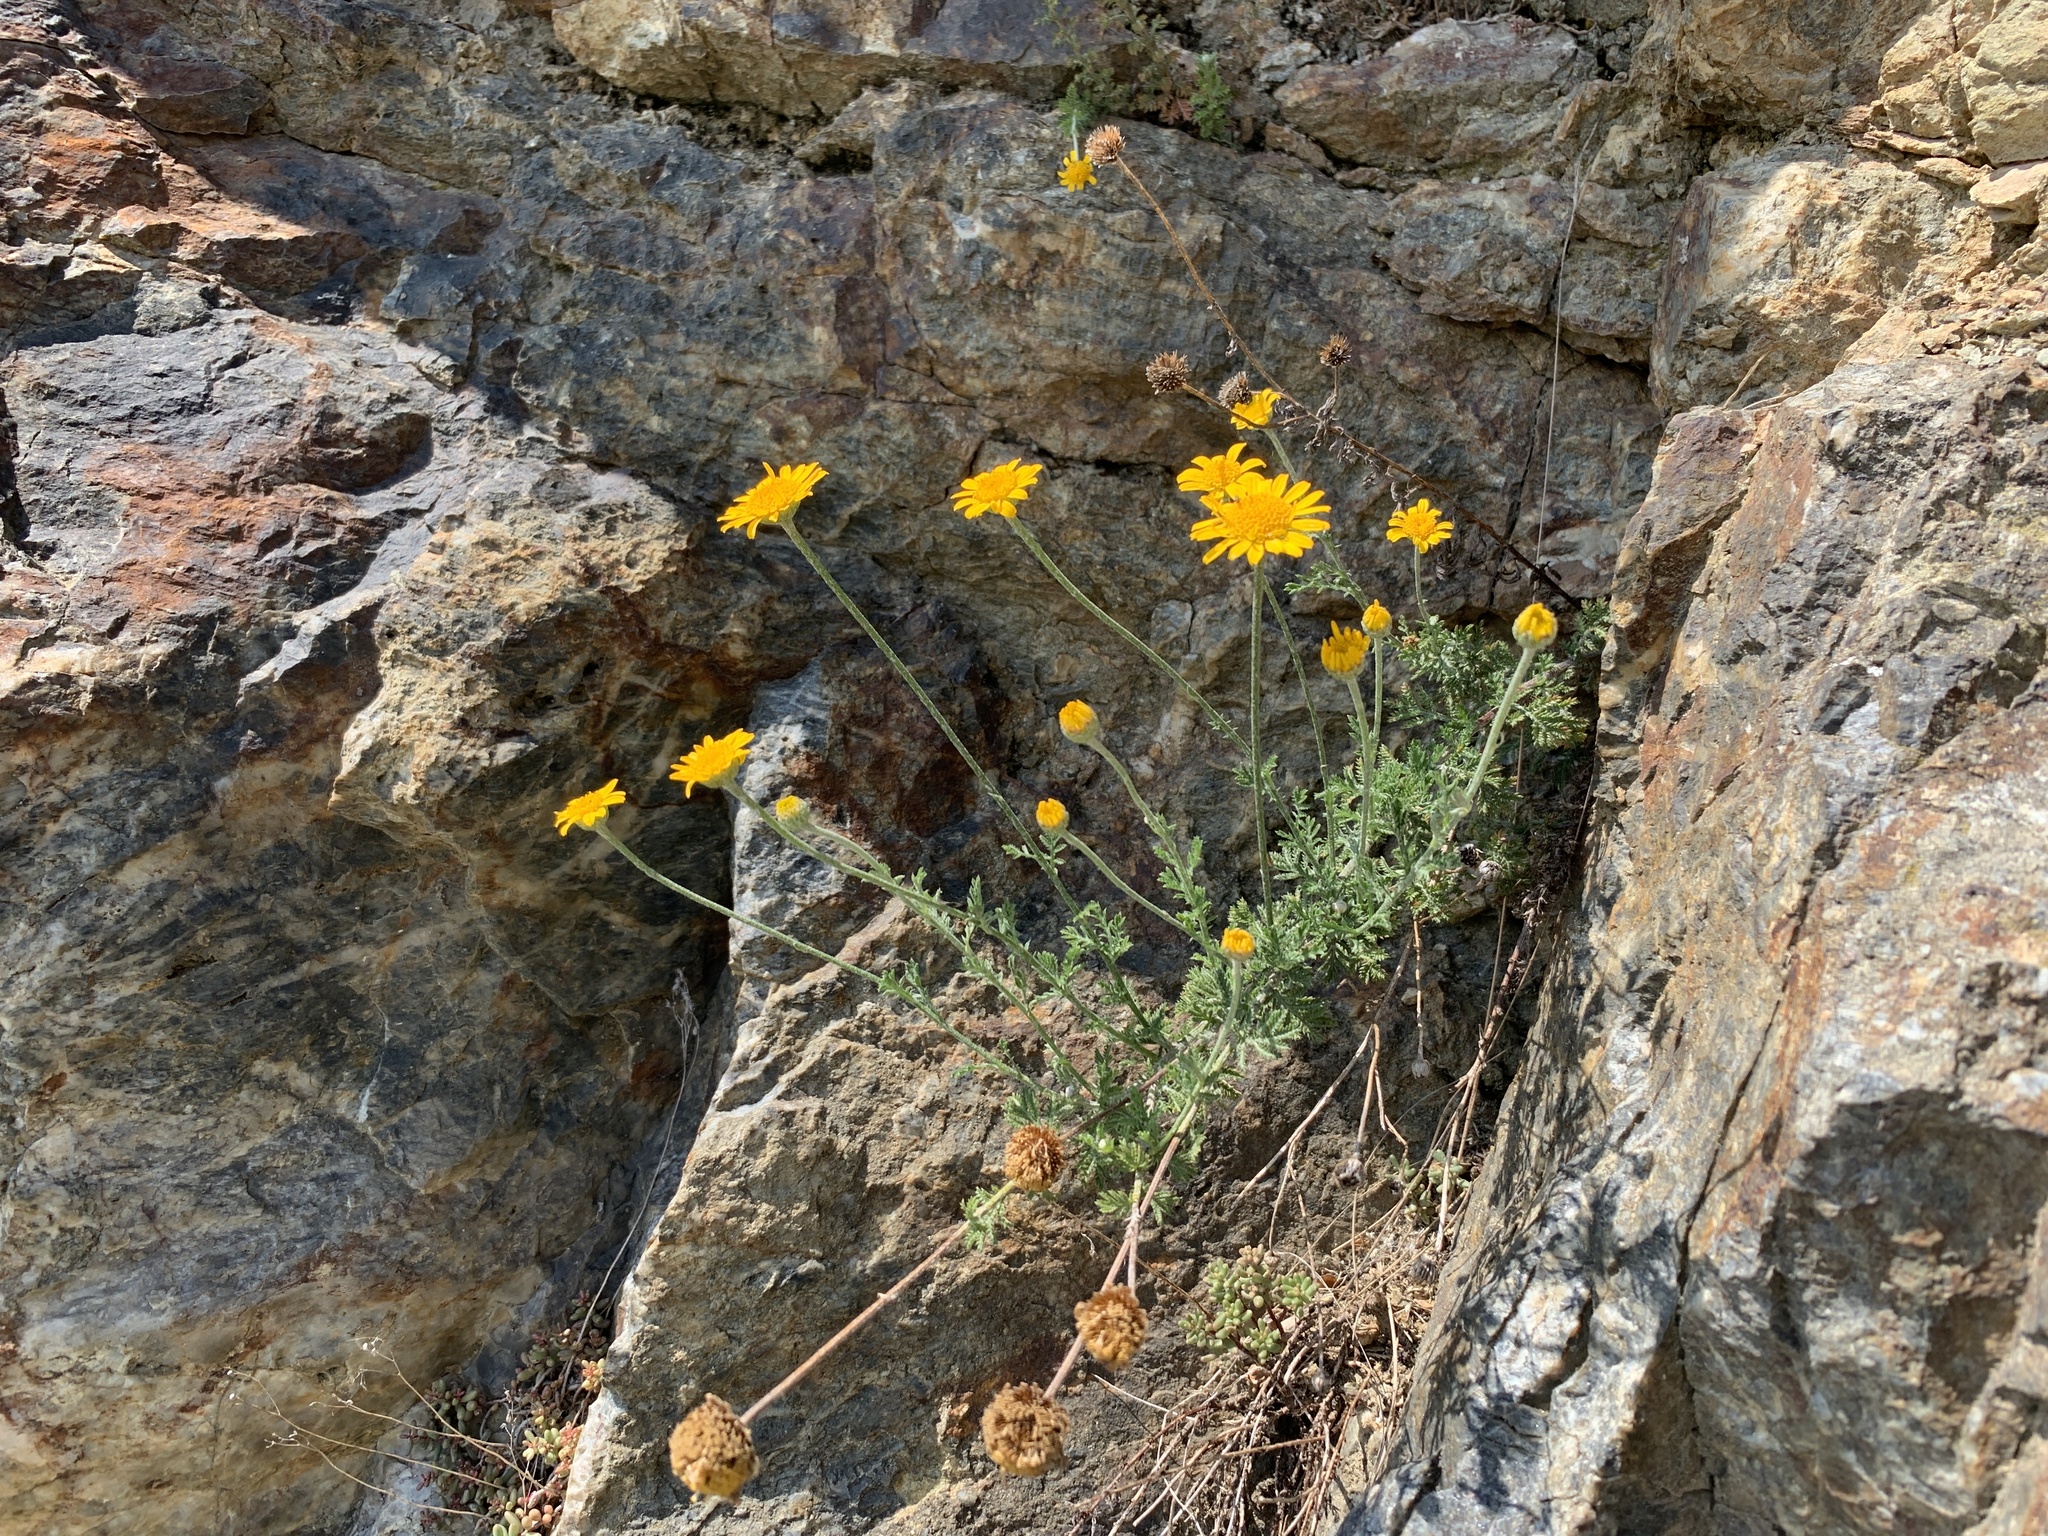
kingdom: Plantae
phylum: Tracheophyta
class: Magnoliopsida
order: Asterales
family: Asteraceae
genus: Cota
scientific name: Cota tinctoria
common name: Golden chamomile
